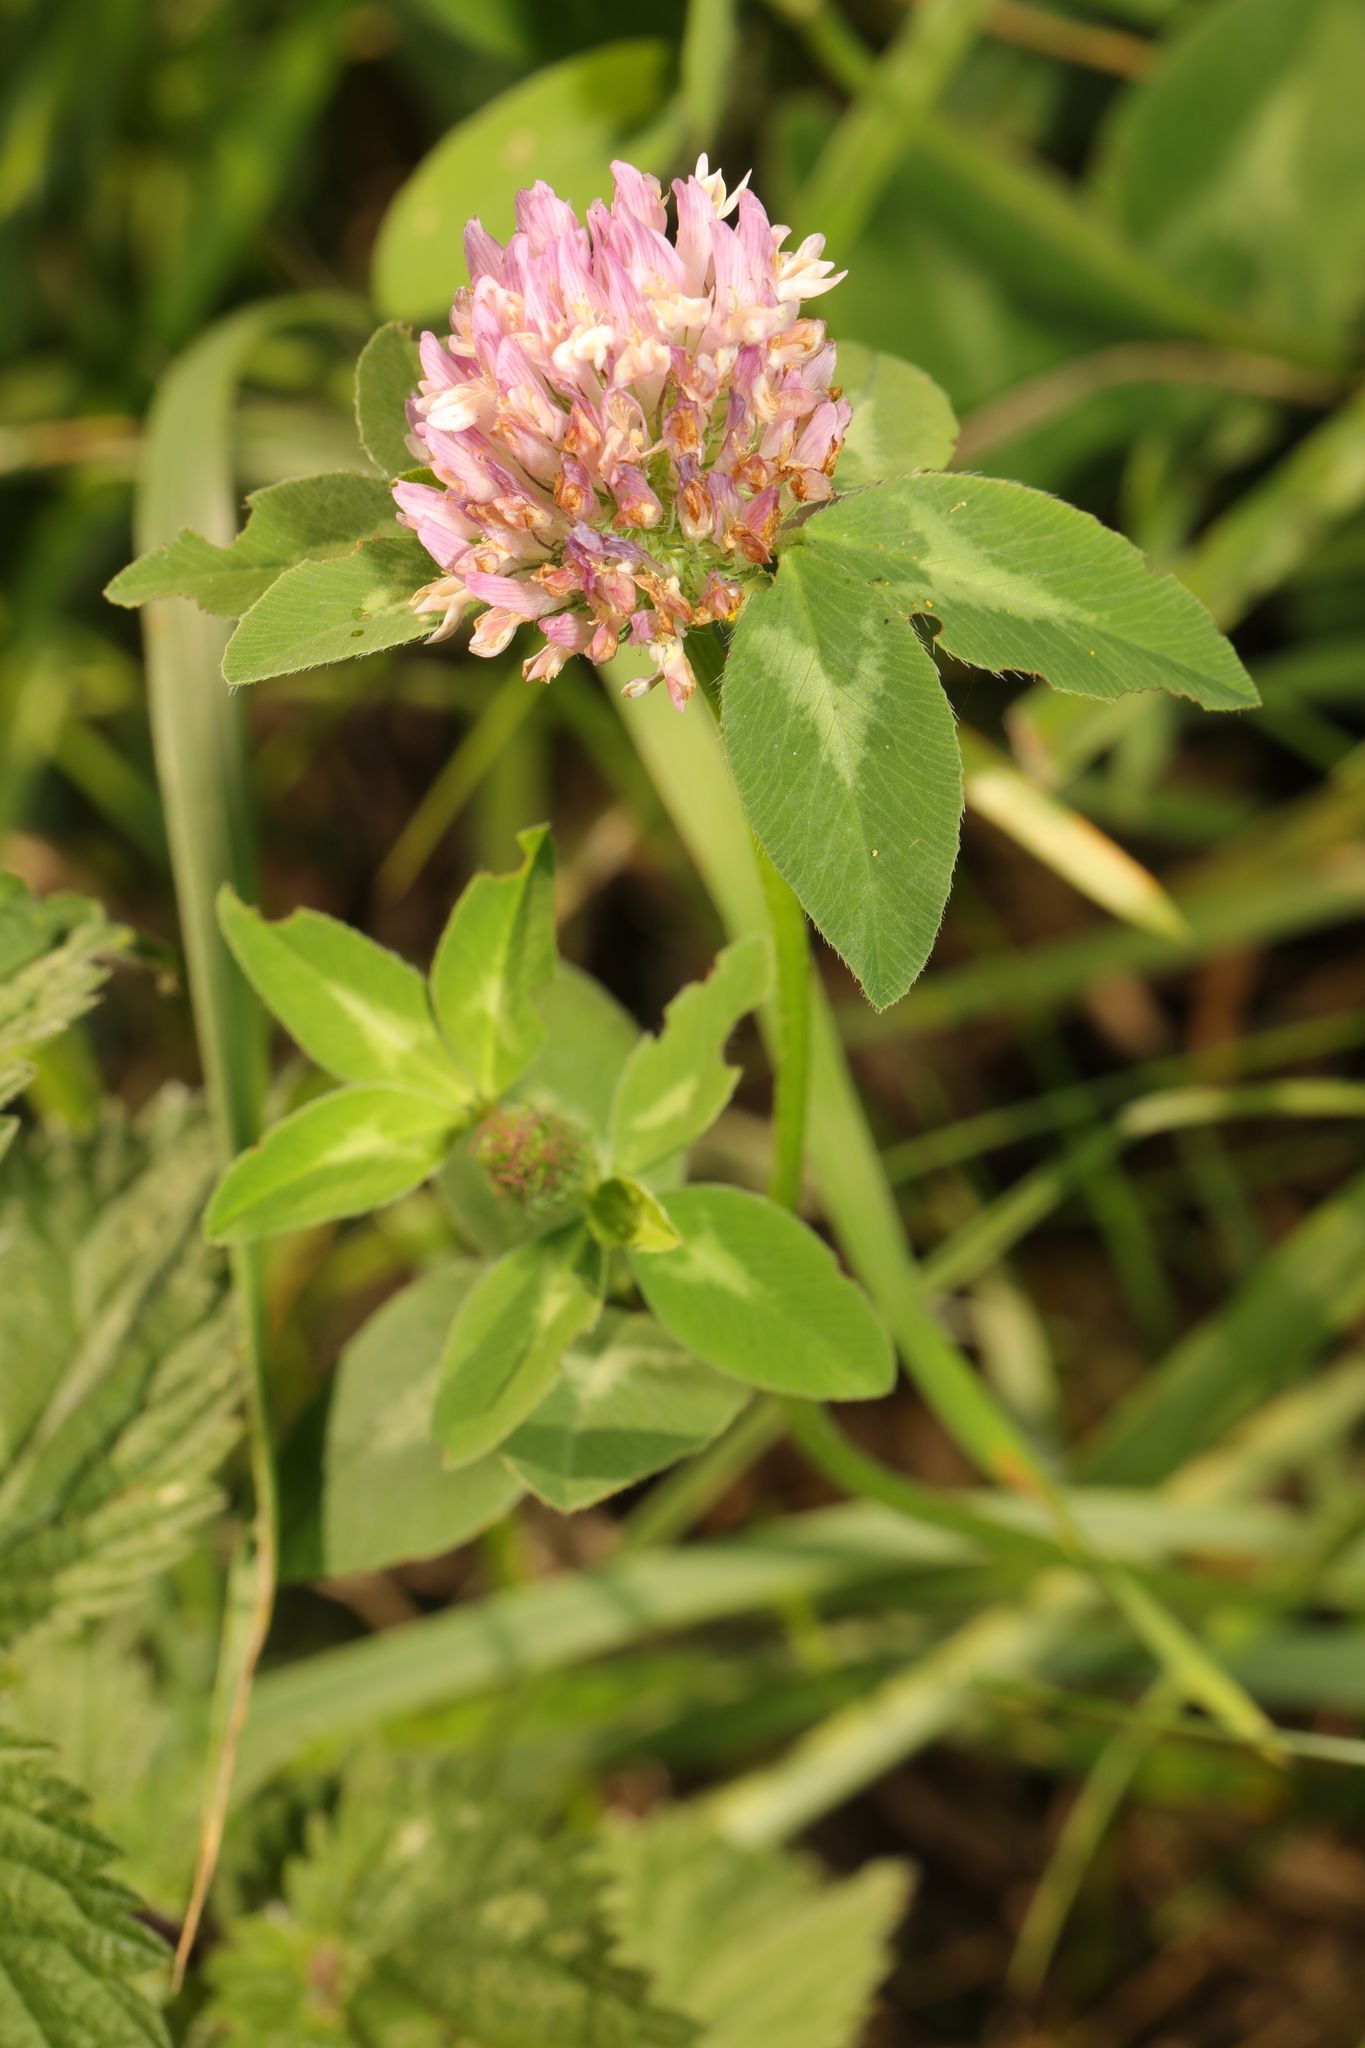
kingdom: Plantae
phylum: Tracheophyta
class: Magnoliopsida
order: Fabales
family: Fabaceae
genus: Trifolium
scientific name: Trifolium pratense
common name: Red clover
